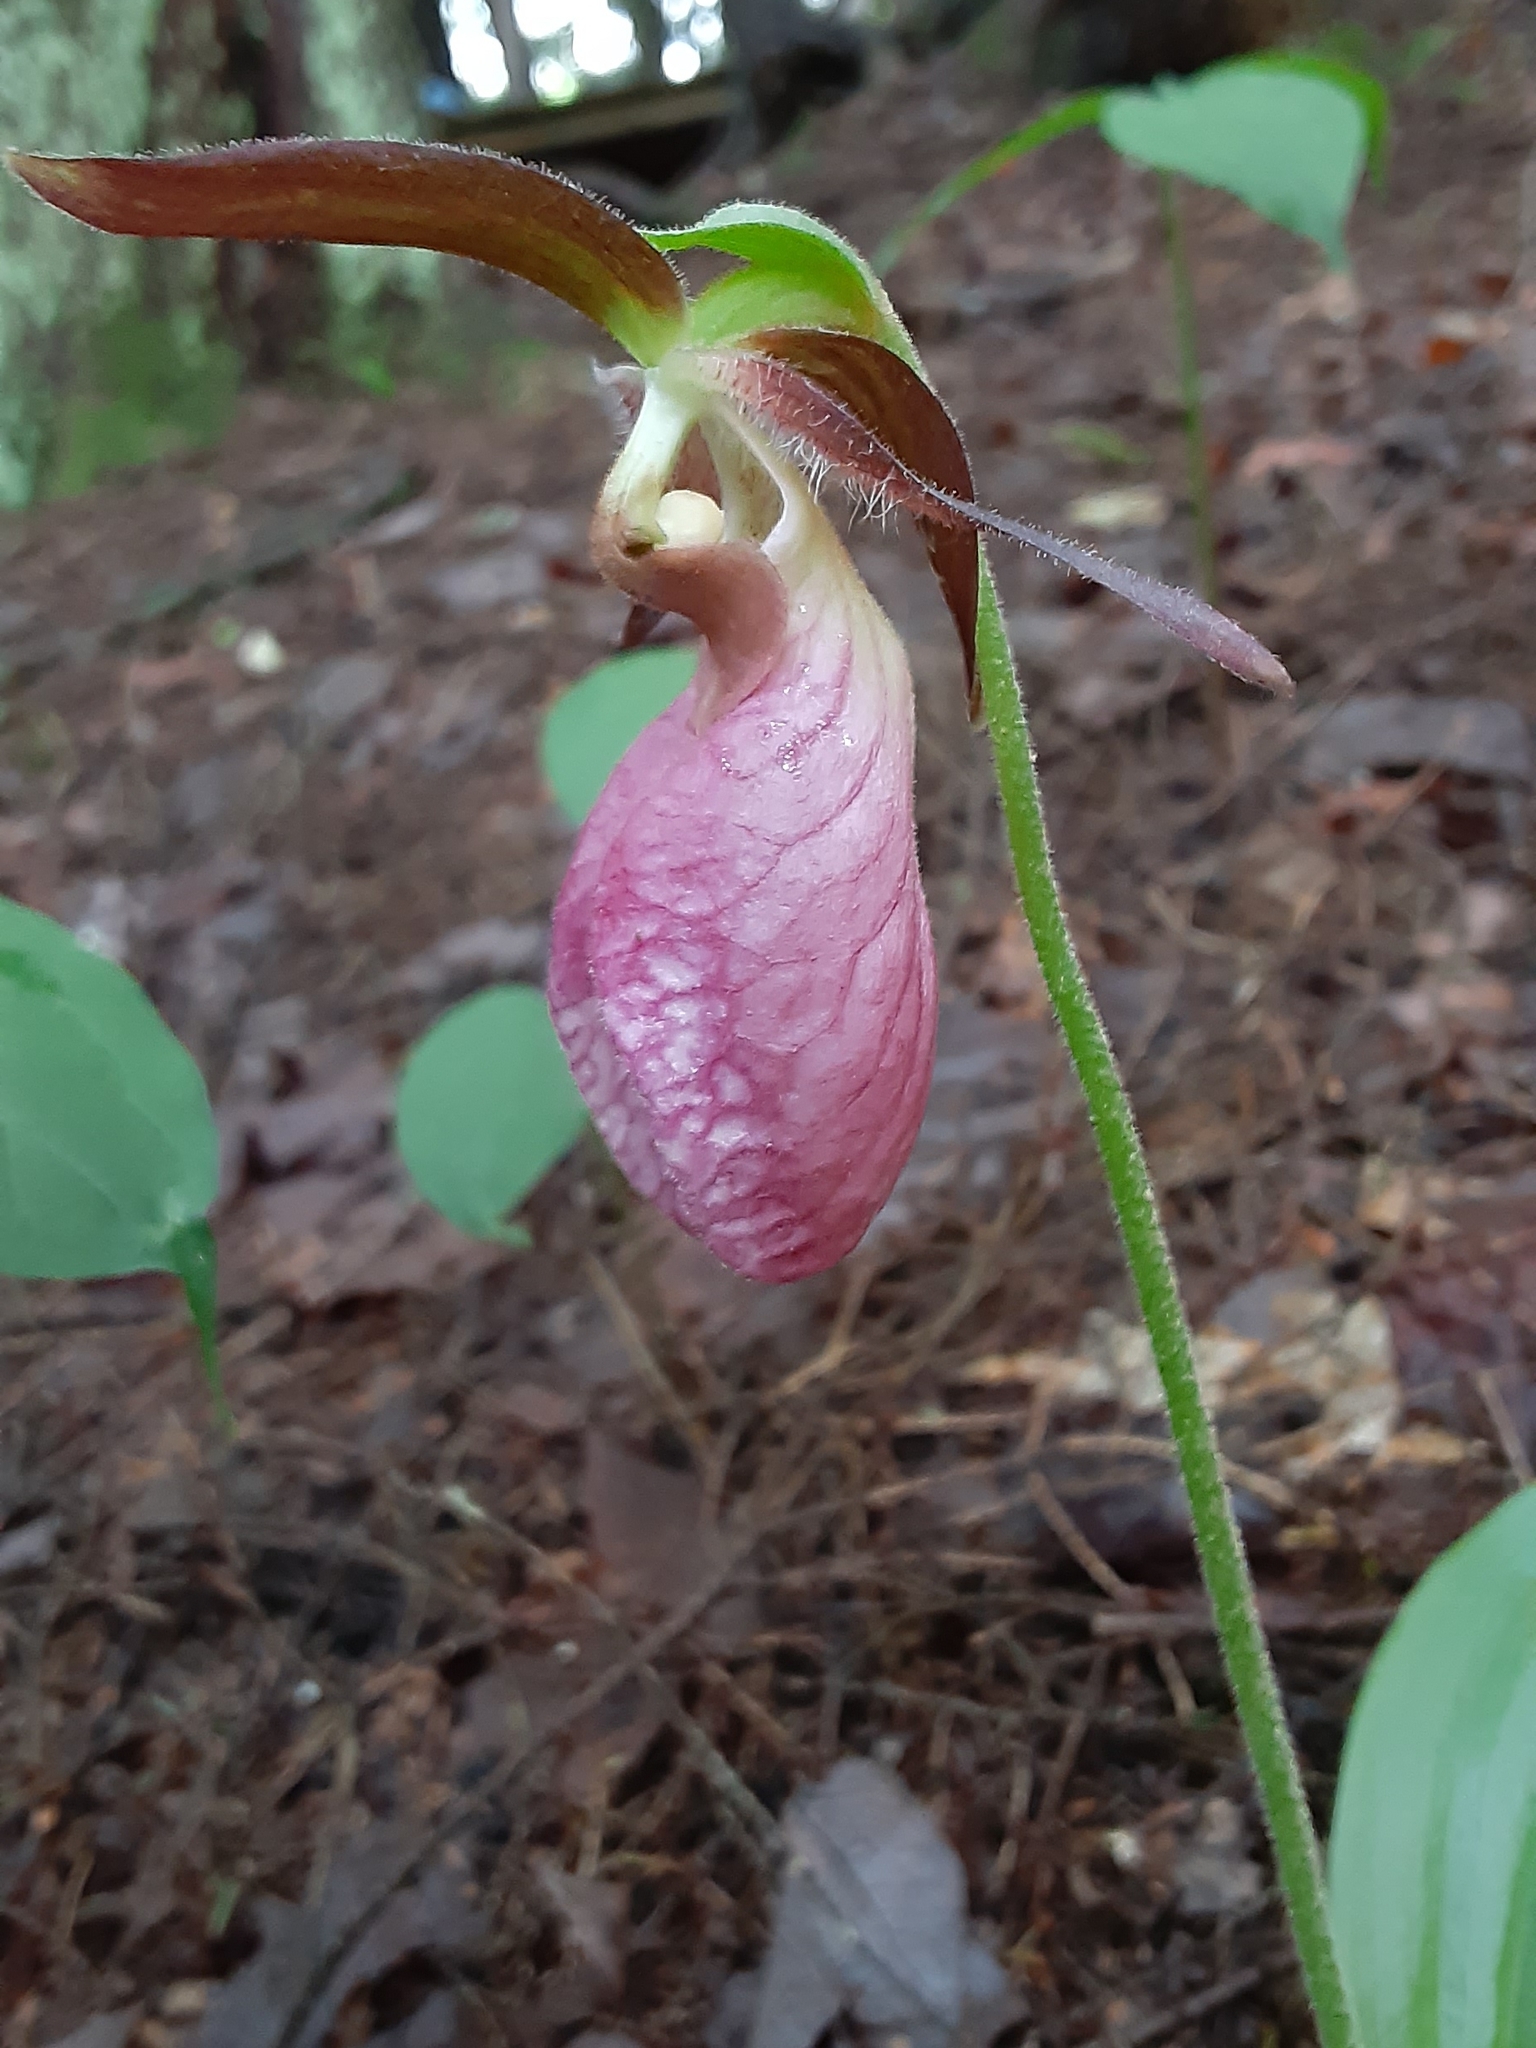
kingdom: Plantae
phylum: Tracheophyta
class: Liliopsida
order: Asparagales
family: Orchidaceae
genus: Cypripedium
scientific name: Cypripedium acaule
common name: Pink lady's-slipper
